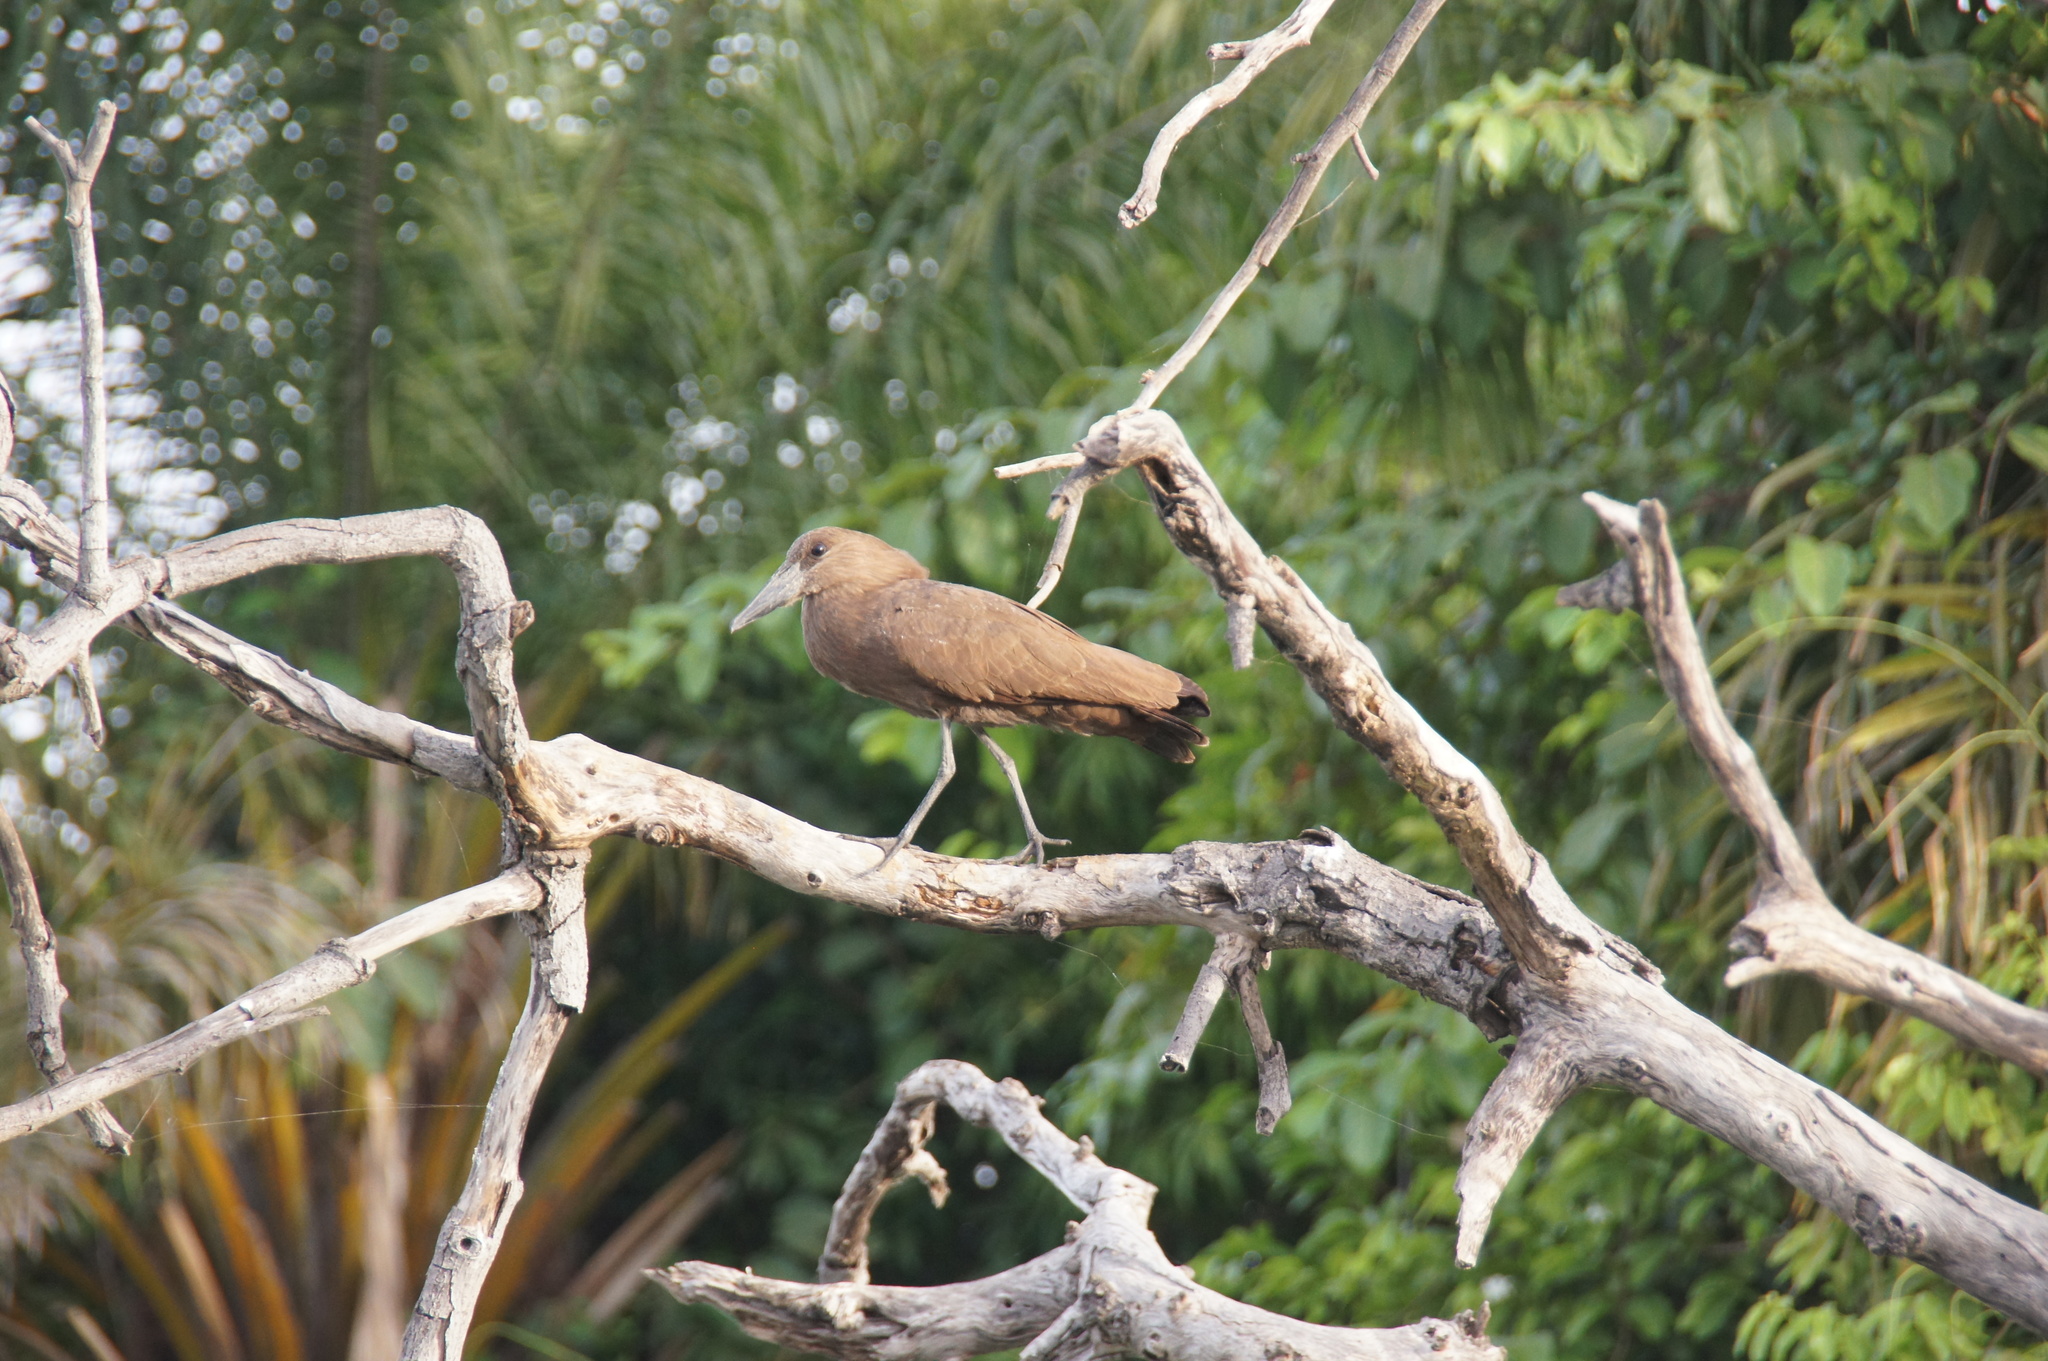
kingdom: Animalia
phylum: Chordata
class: Aves
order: Pelecaniformes
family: Scopidae
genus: Scopus
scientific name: Scopus umbretta
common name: Hamerkop
